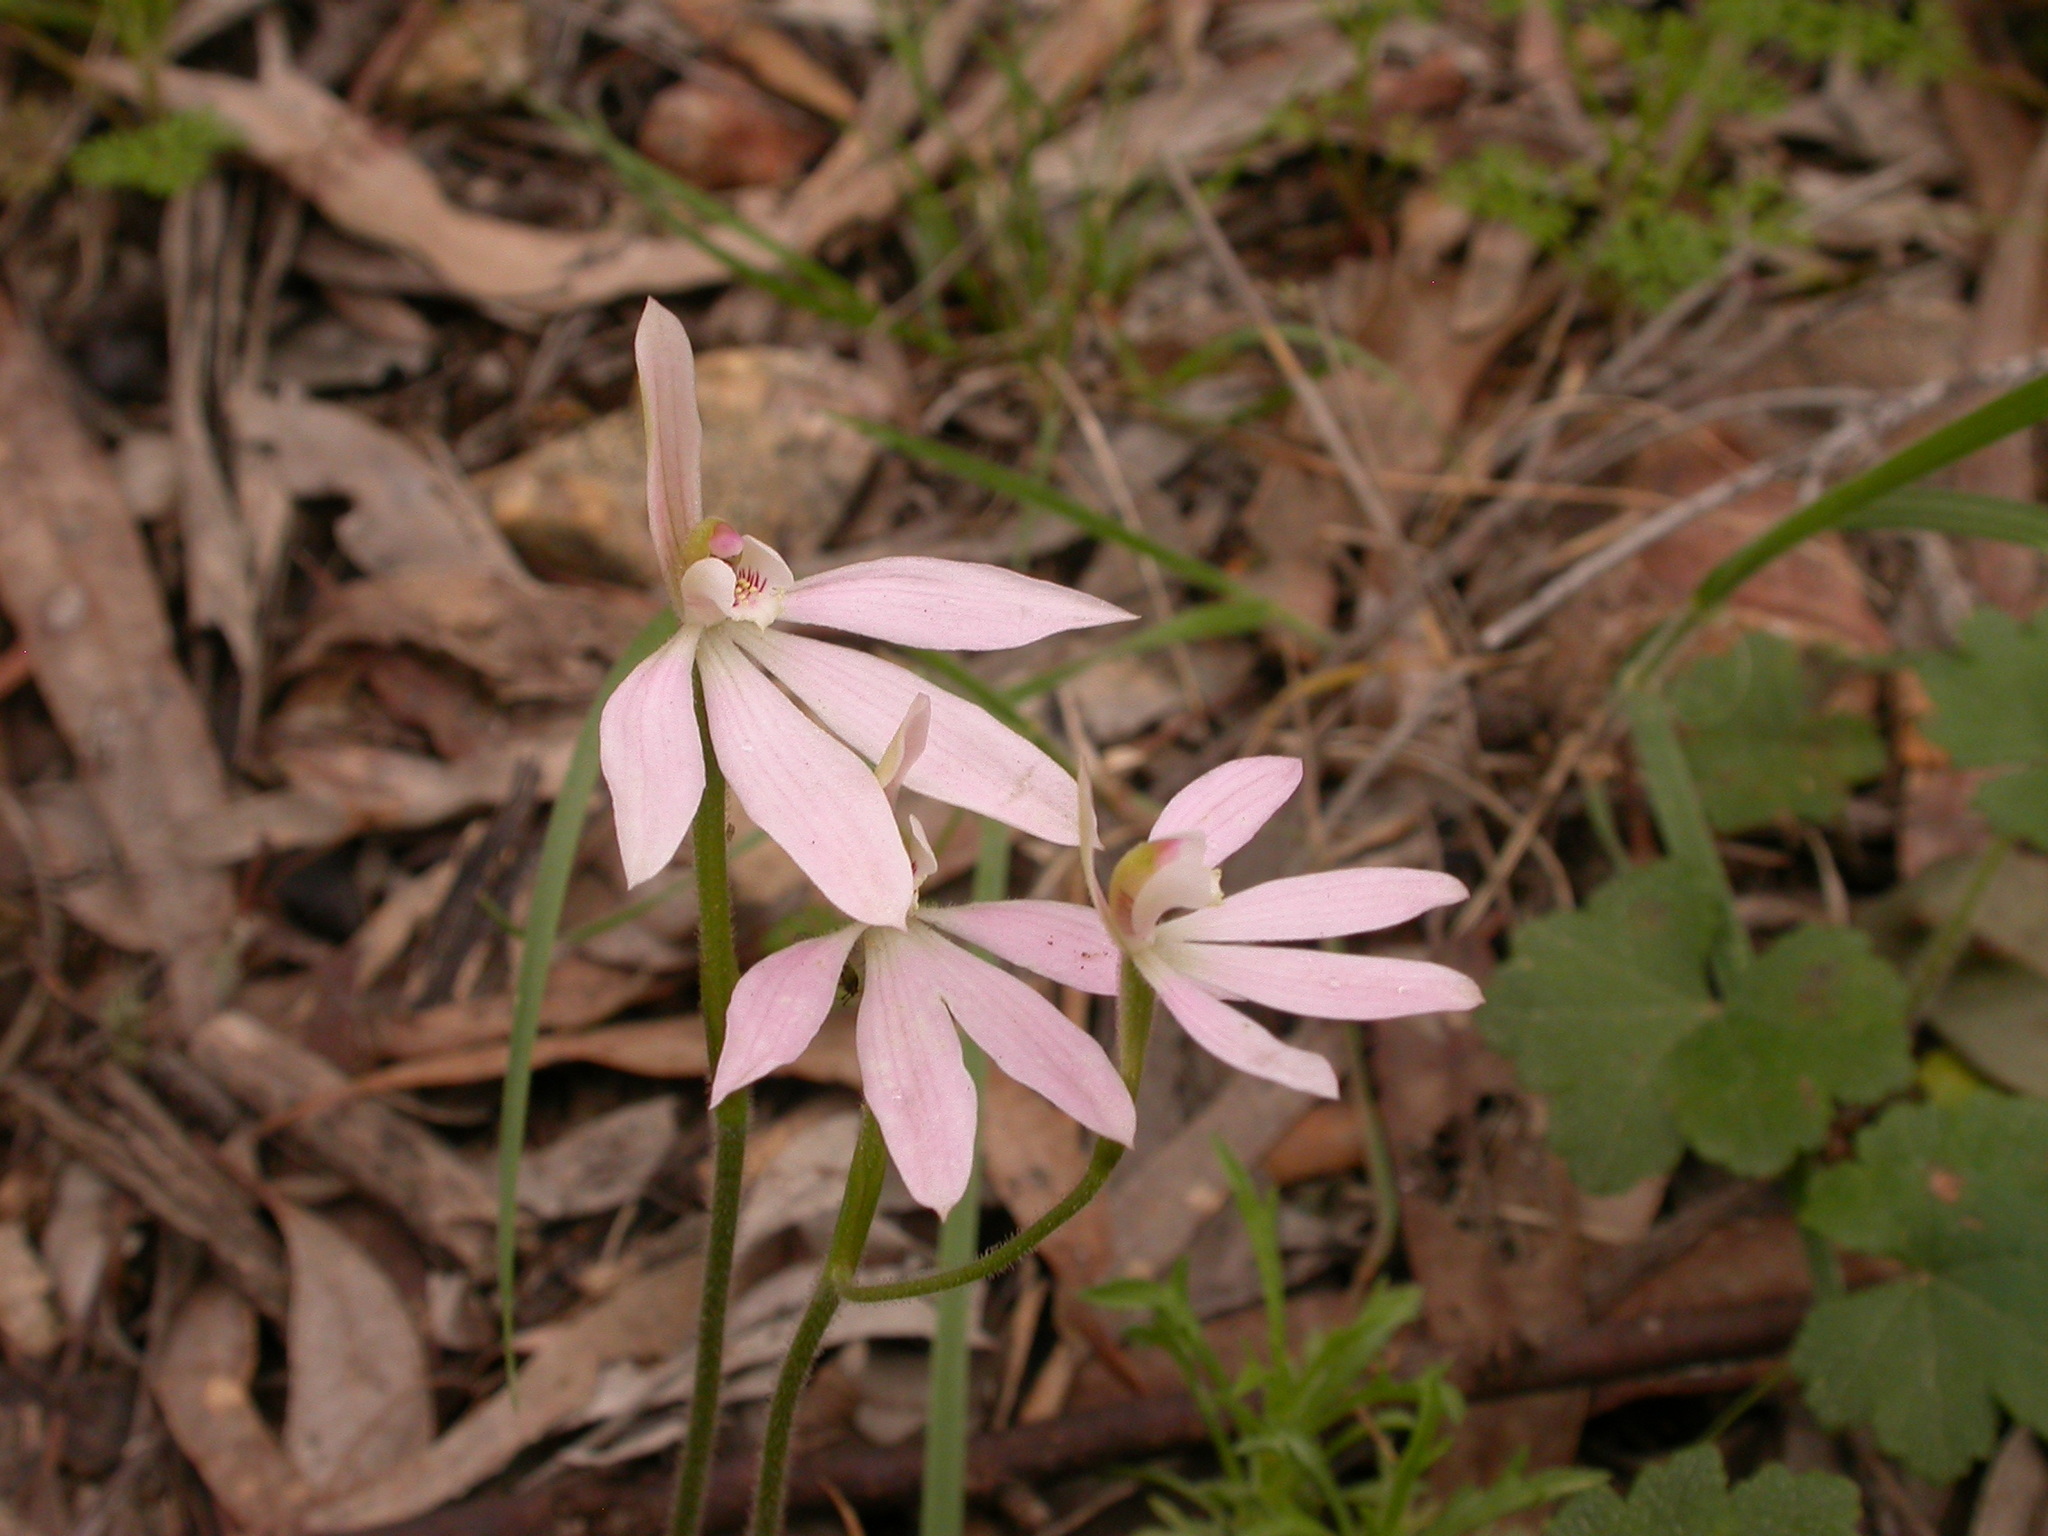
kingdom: Plantae
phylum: Tracheophyta
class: Liliopsida
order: Asparagales
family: Orchidaceae
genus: Caladenia
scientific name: Caladenia carnea
